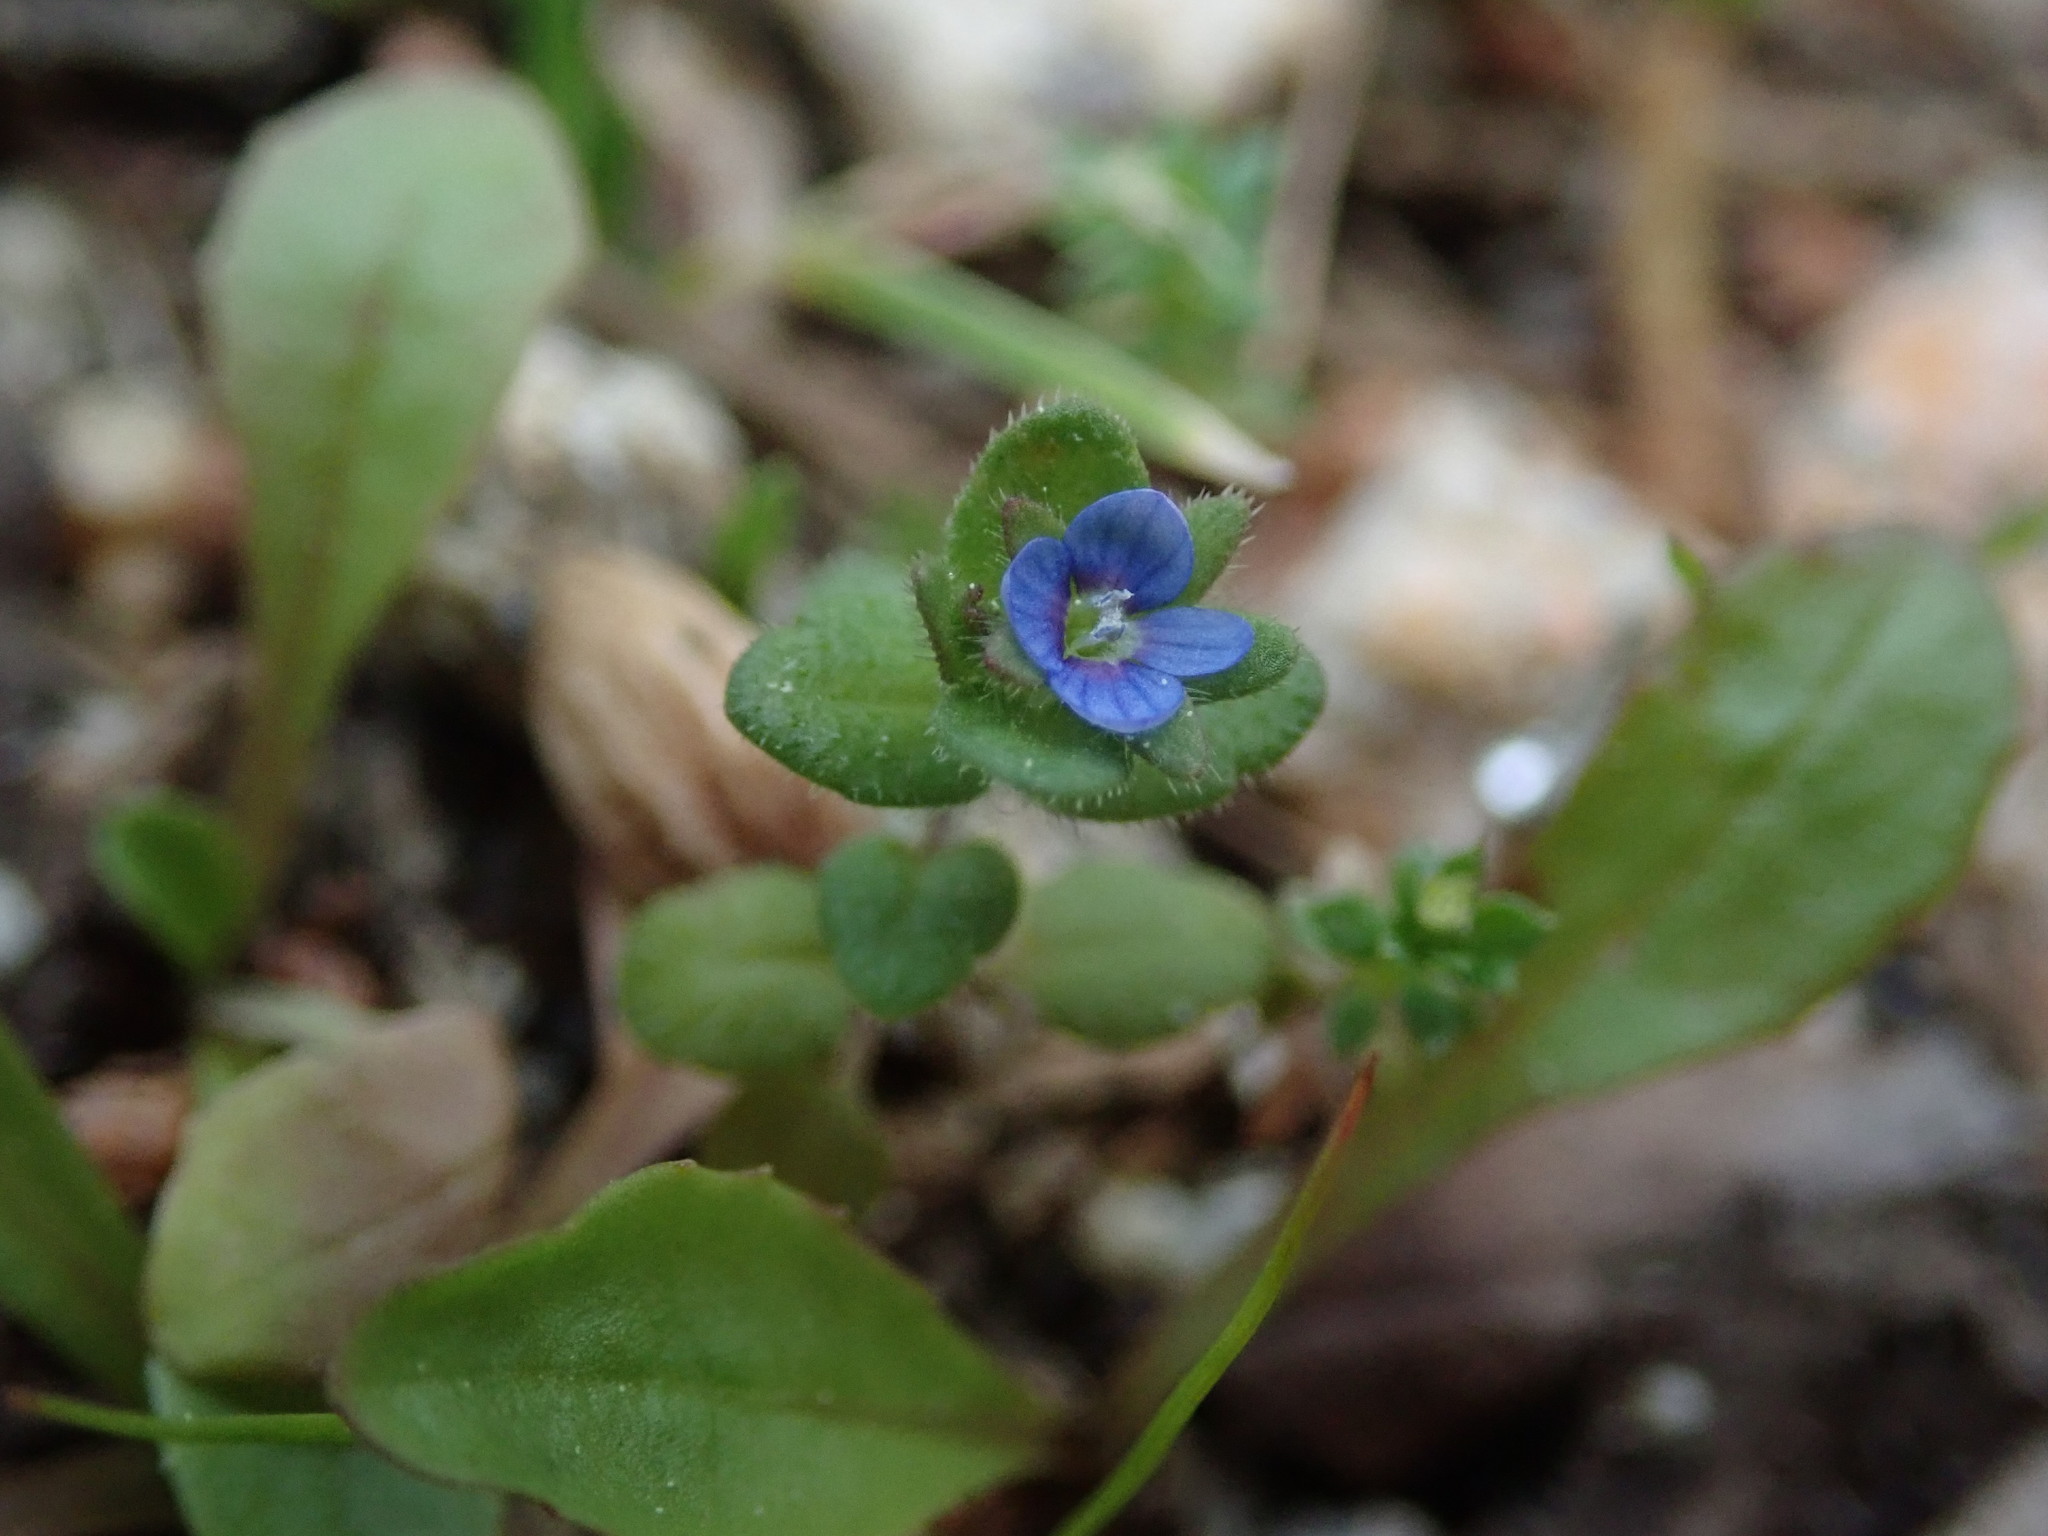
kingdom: Plantae
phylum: Tracheophyta
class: Magnoliopsida
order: Lamiales
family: Plantaginaceae
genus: Veronica
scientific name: Veronica arvensis
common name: Corn speedwell
